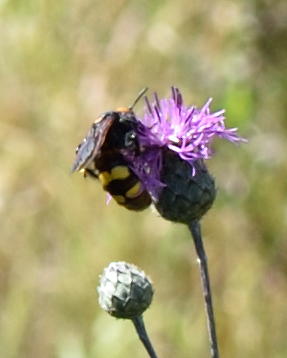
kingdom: Animalia
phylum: Arthropoda
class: Insecta
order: Hymenoptera
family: Scoliidae
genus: Megascolia
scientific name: Megascolia maculata
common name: Mammoth wasp
